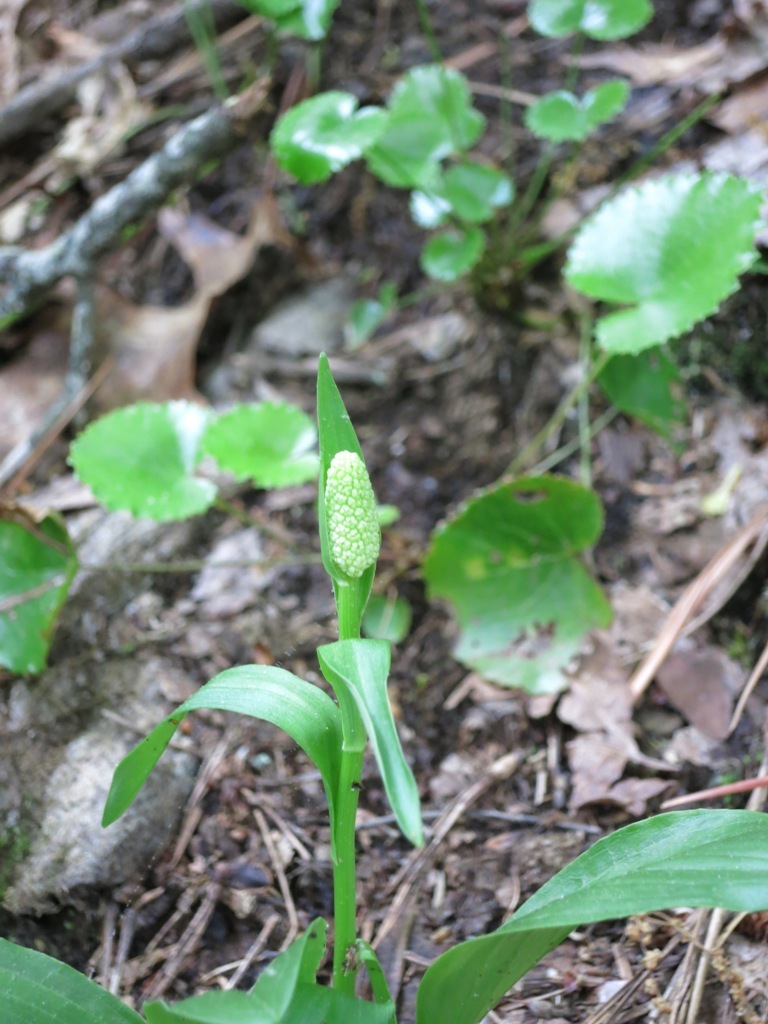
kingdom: Plantae
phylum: Tracheophyta
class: Liliopsida
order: Liliales
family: Melanthiaceae
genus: Chamaelirium
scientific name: Chamaelirium luteum
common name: Fairy-wand
